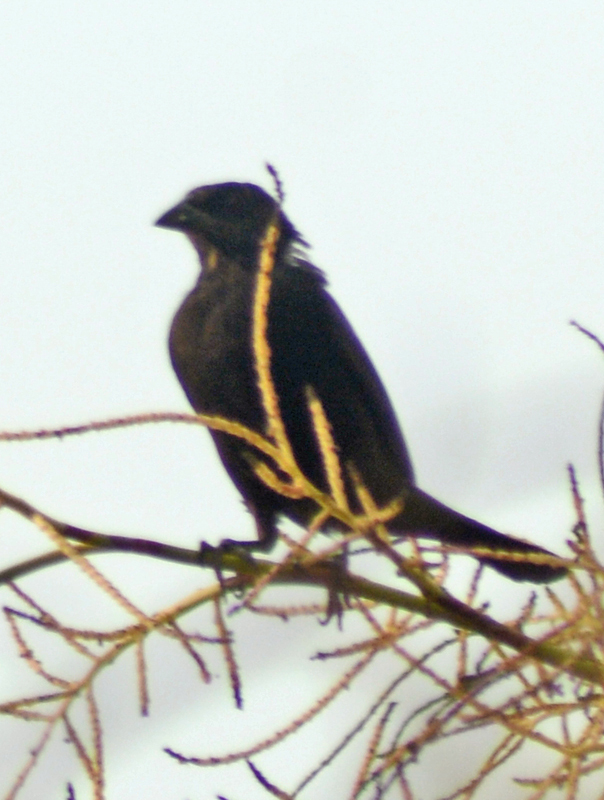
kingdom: Animalia
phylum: Chordata
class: Aves
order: Passeriformes
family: Icteridae
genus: Molothrus
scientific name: Molothrus aeneus
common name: Bronzed cowbird
